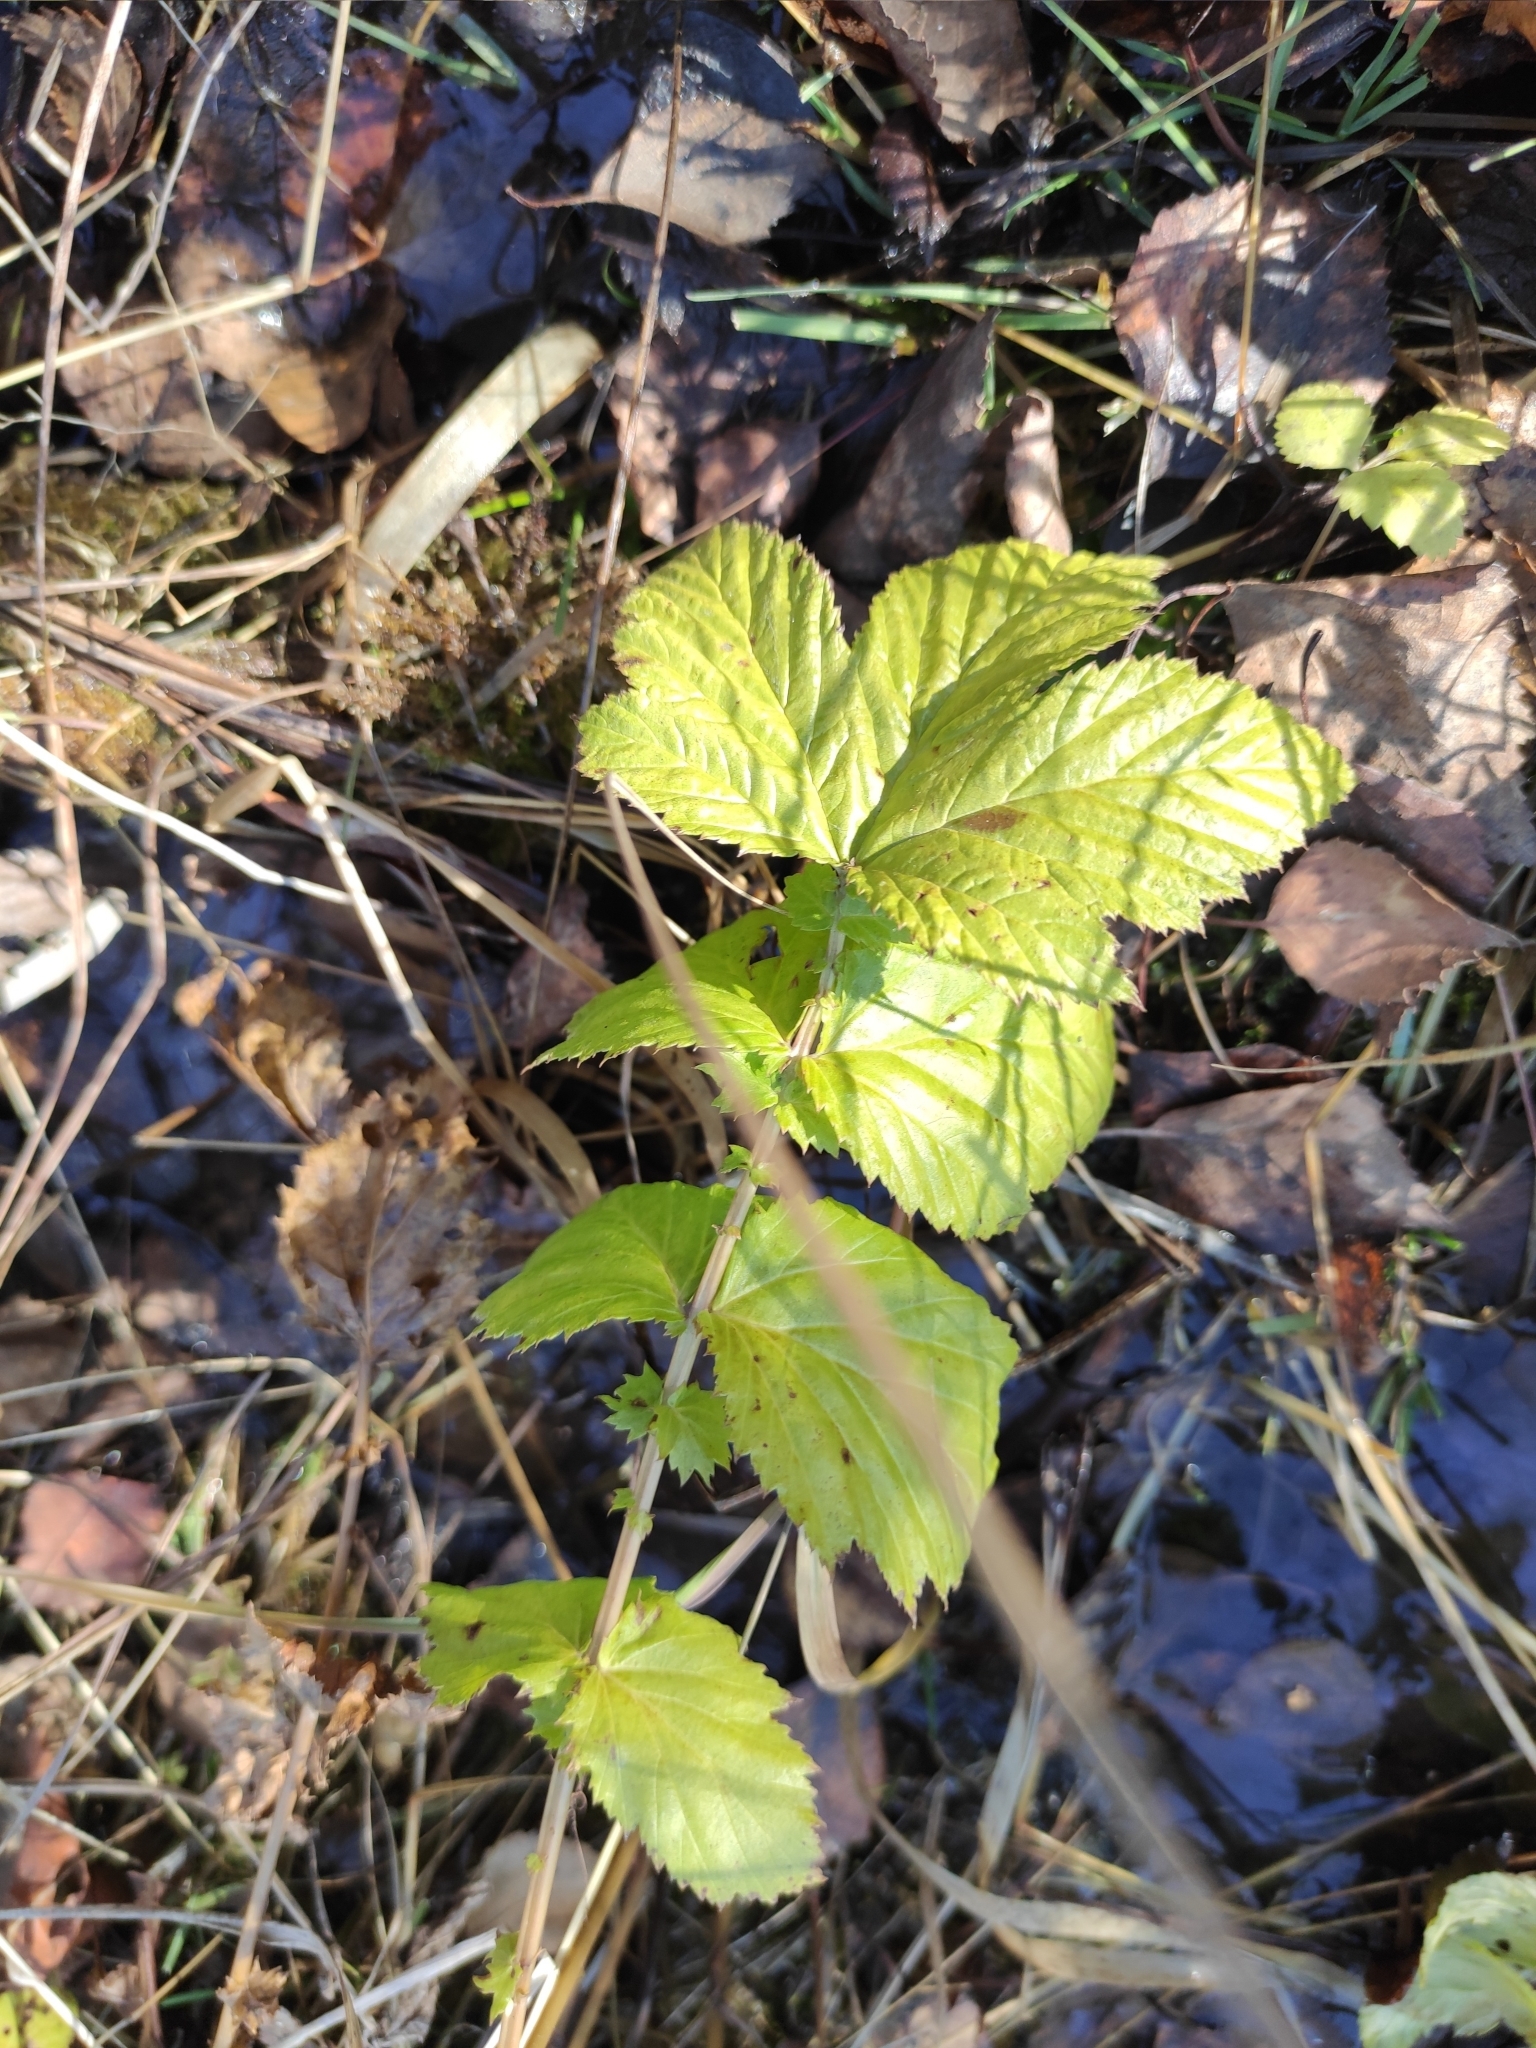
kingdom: Plantae
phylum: Tracheophyta
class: Magnoliopsida
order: Rosales
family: Rosaceae
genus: Filipendula
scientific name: Filipendula ulmaria
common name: Meadowsweet
